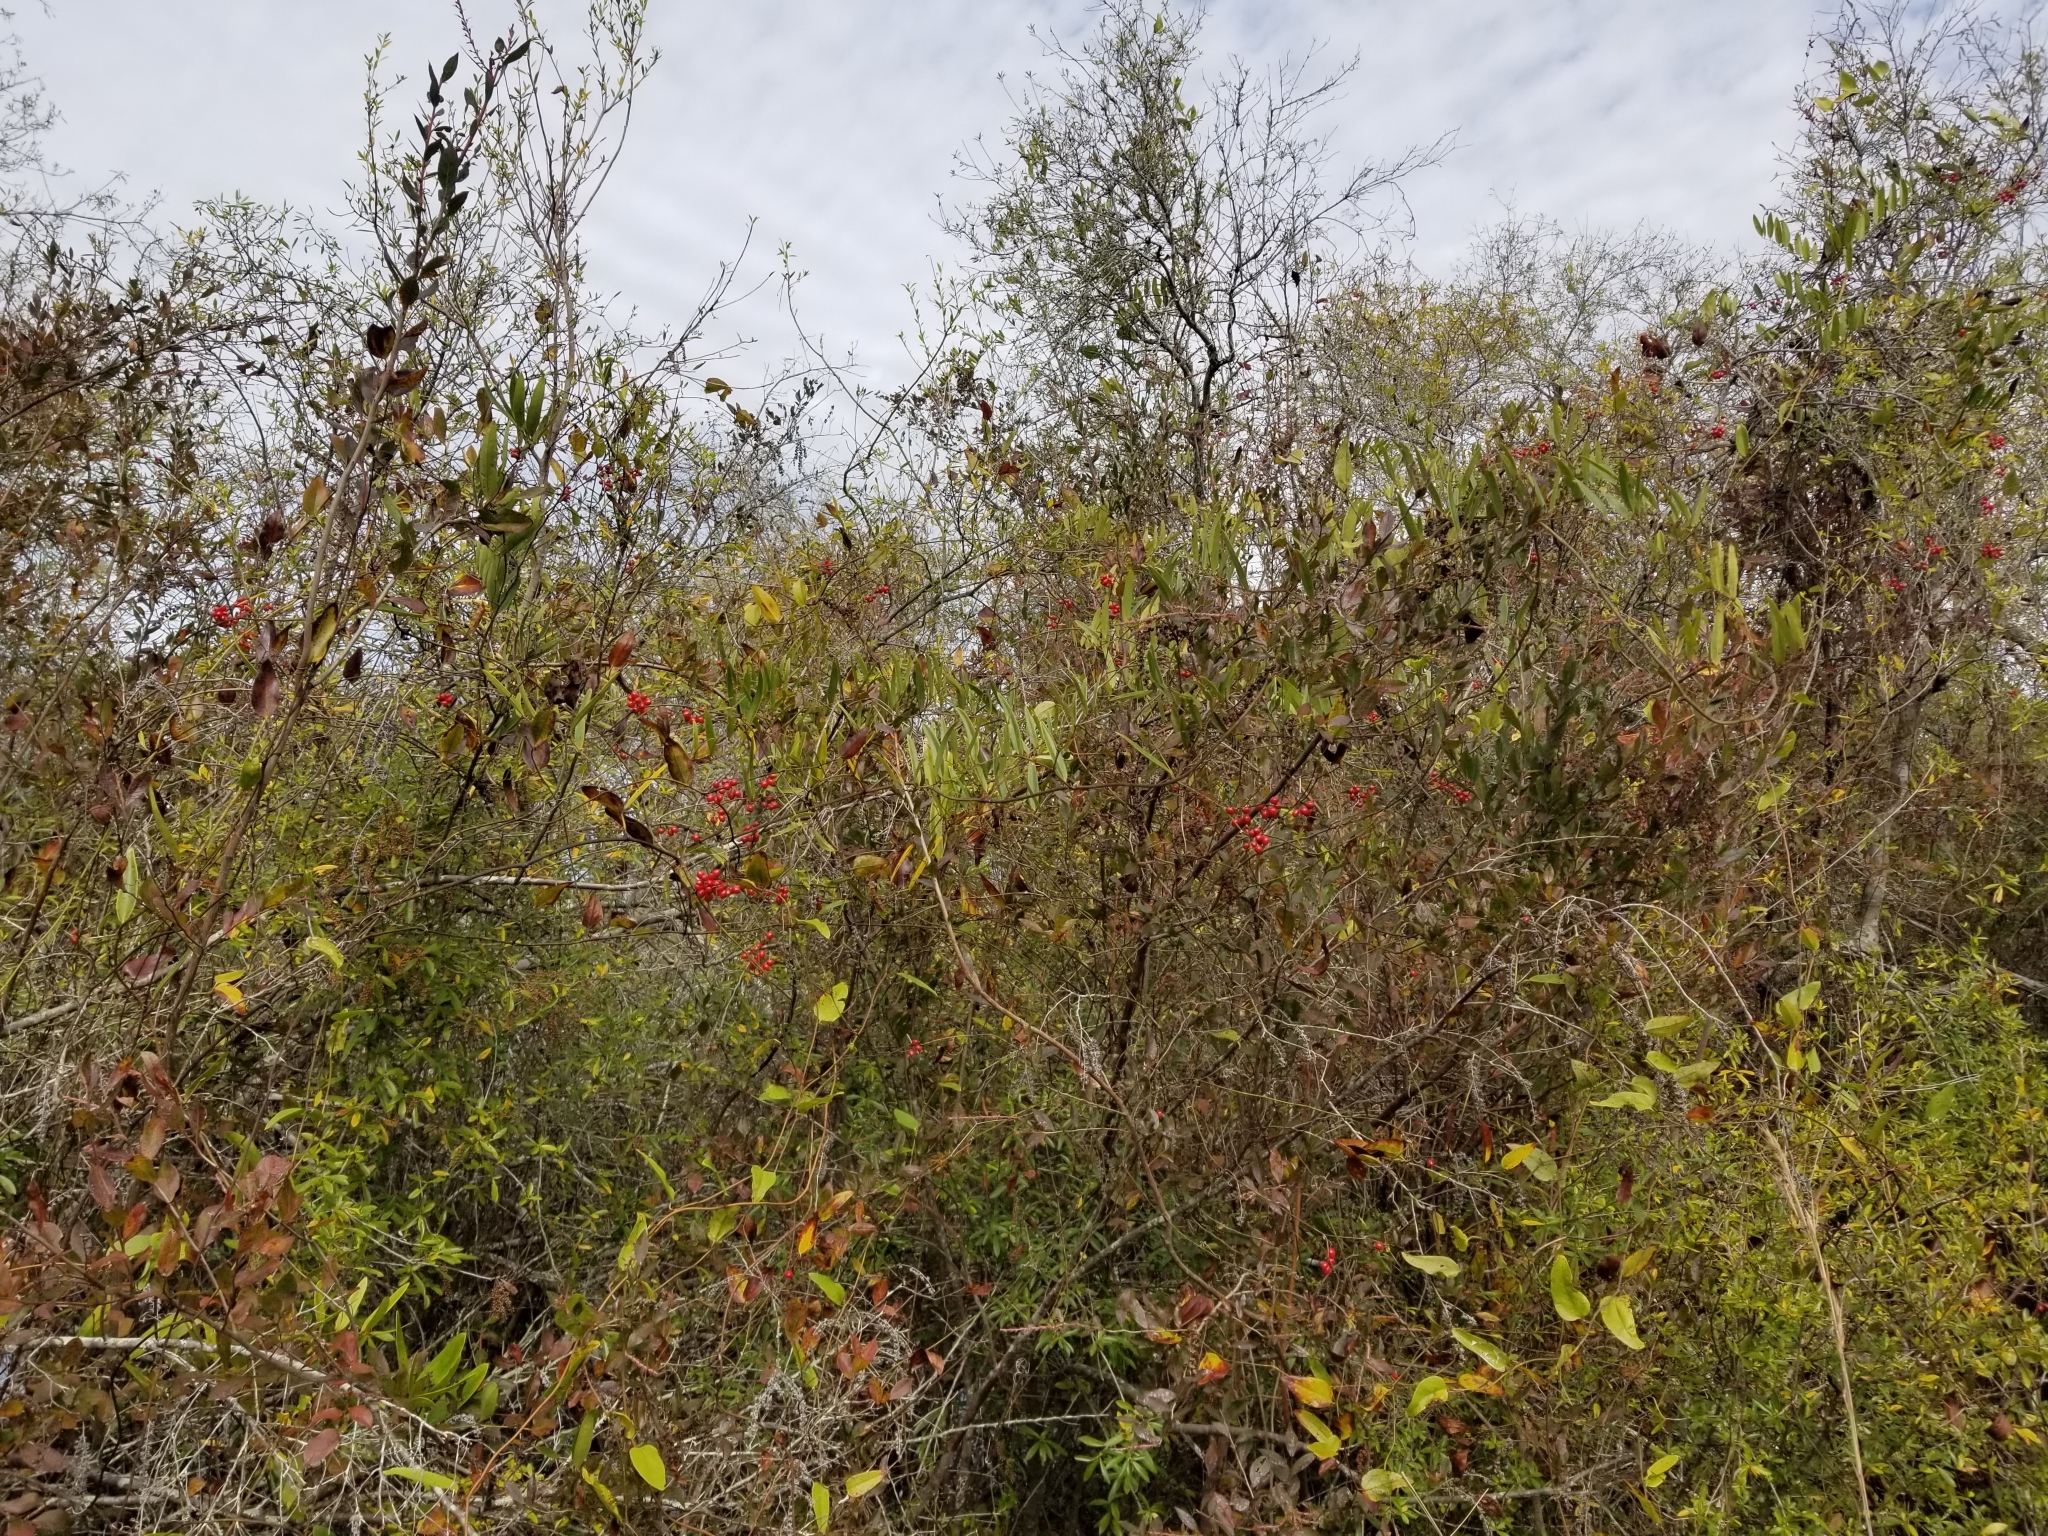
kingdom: Plantae
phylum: Tracheophyta
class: Liliopsida
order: Liliales
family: Smilacaceae
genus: Smilax
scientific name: Smilax laurifolia
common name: Bamboovine
